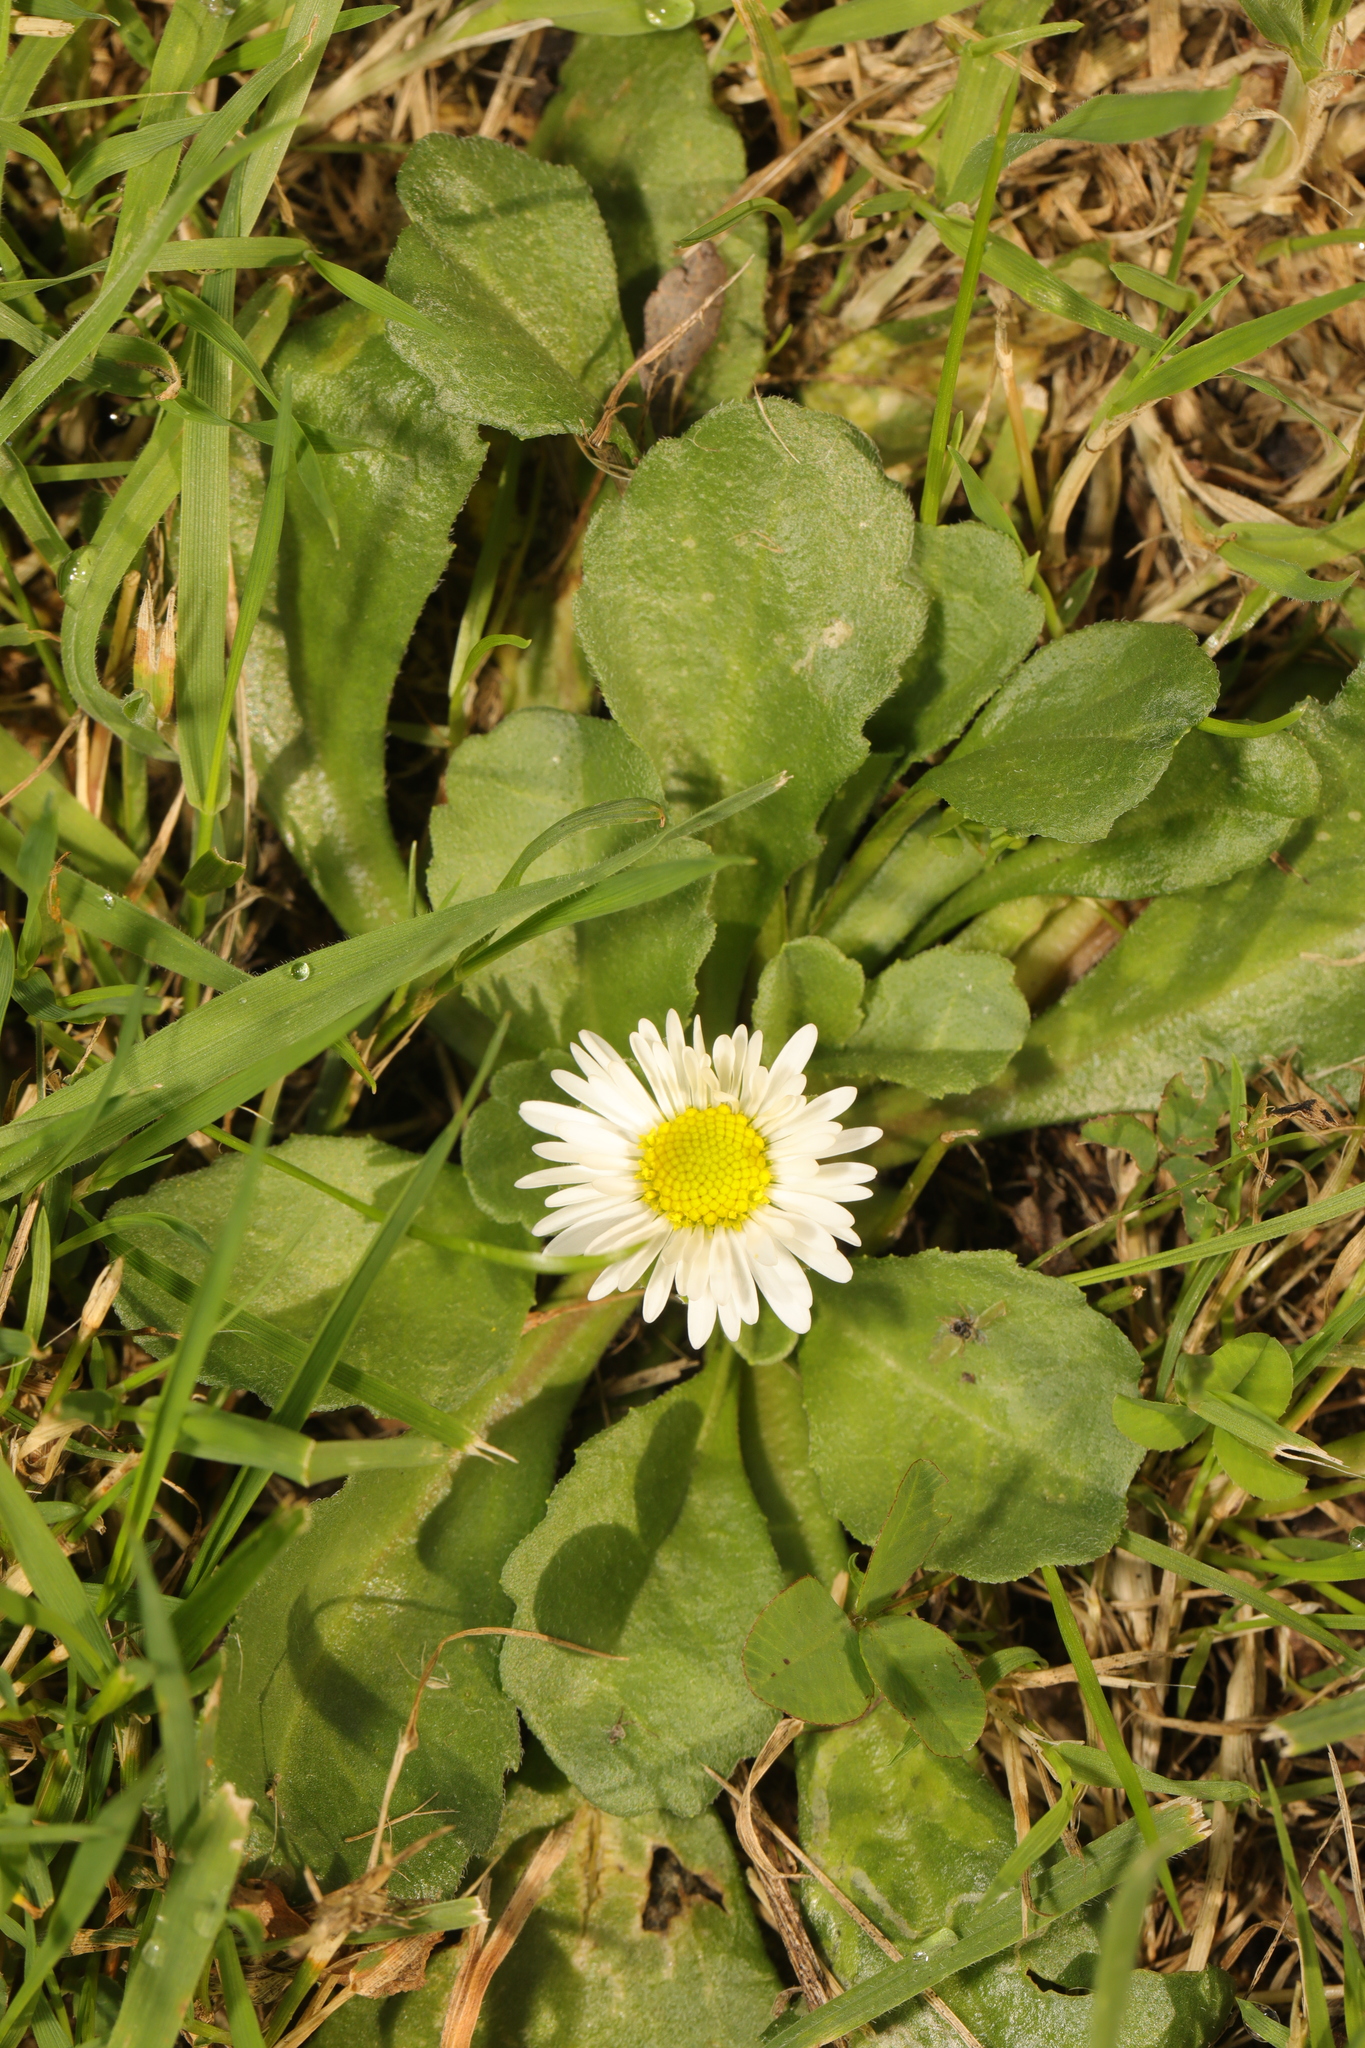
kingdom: Plantae
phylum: Tracheophyta
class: Magnoliopsida
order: Asterales
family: Asteraceae
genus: Bellis
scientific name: Bellis perennis
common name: Lawndaisy
